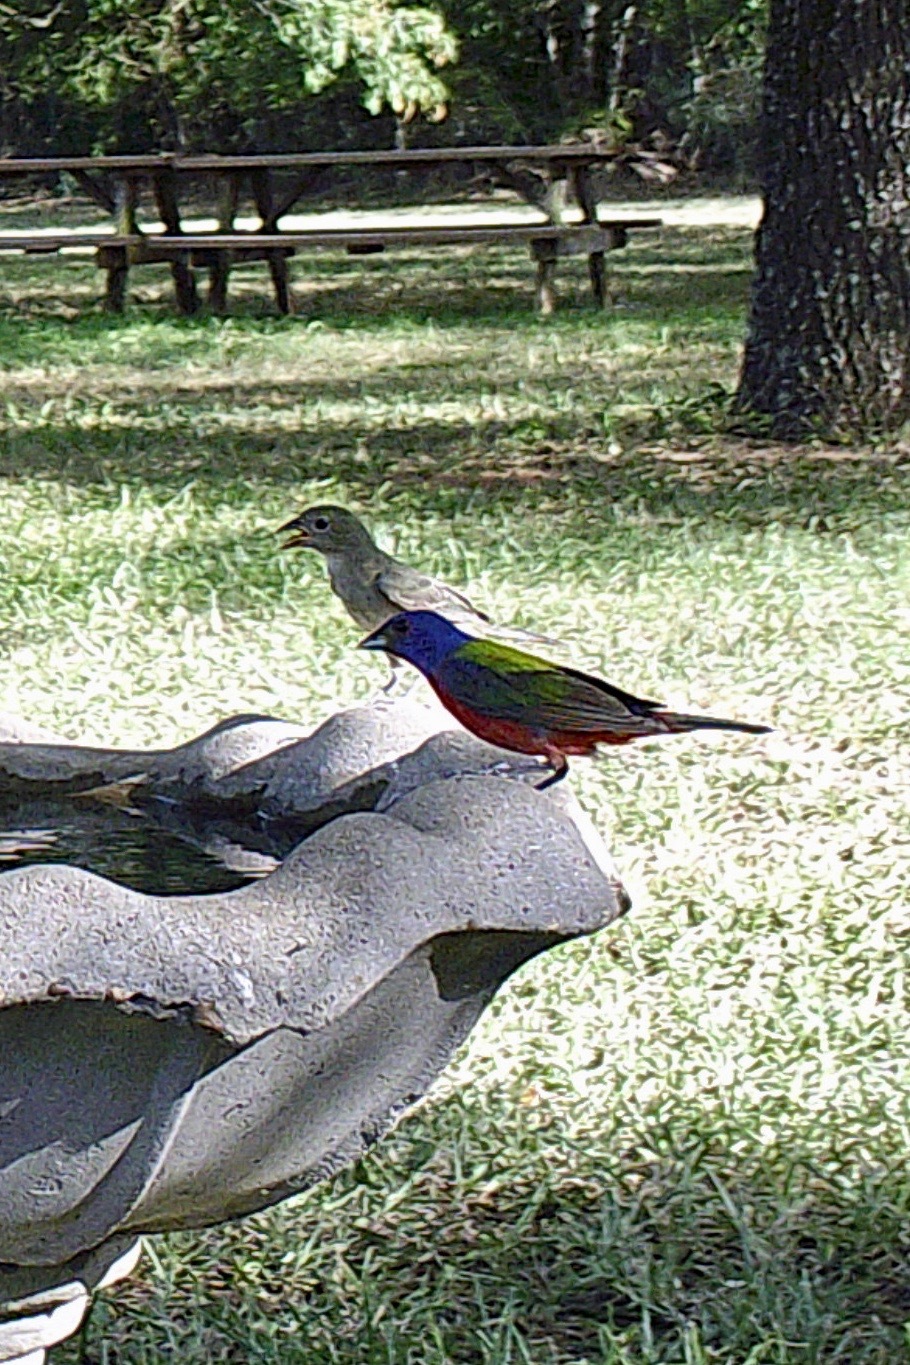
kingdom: Animalia
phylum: Chordata
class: Aves
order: Passeriformes
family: Cardinalidae
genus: Passerina
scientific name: Passerina ciris
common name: Painted bunting
